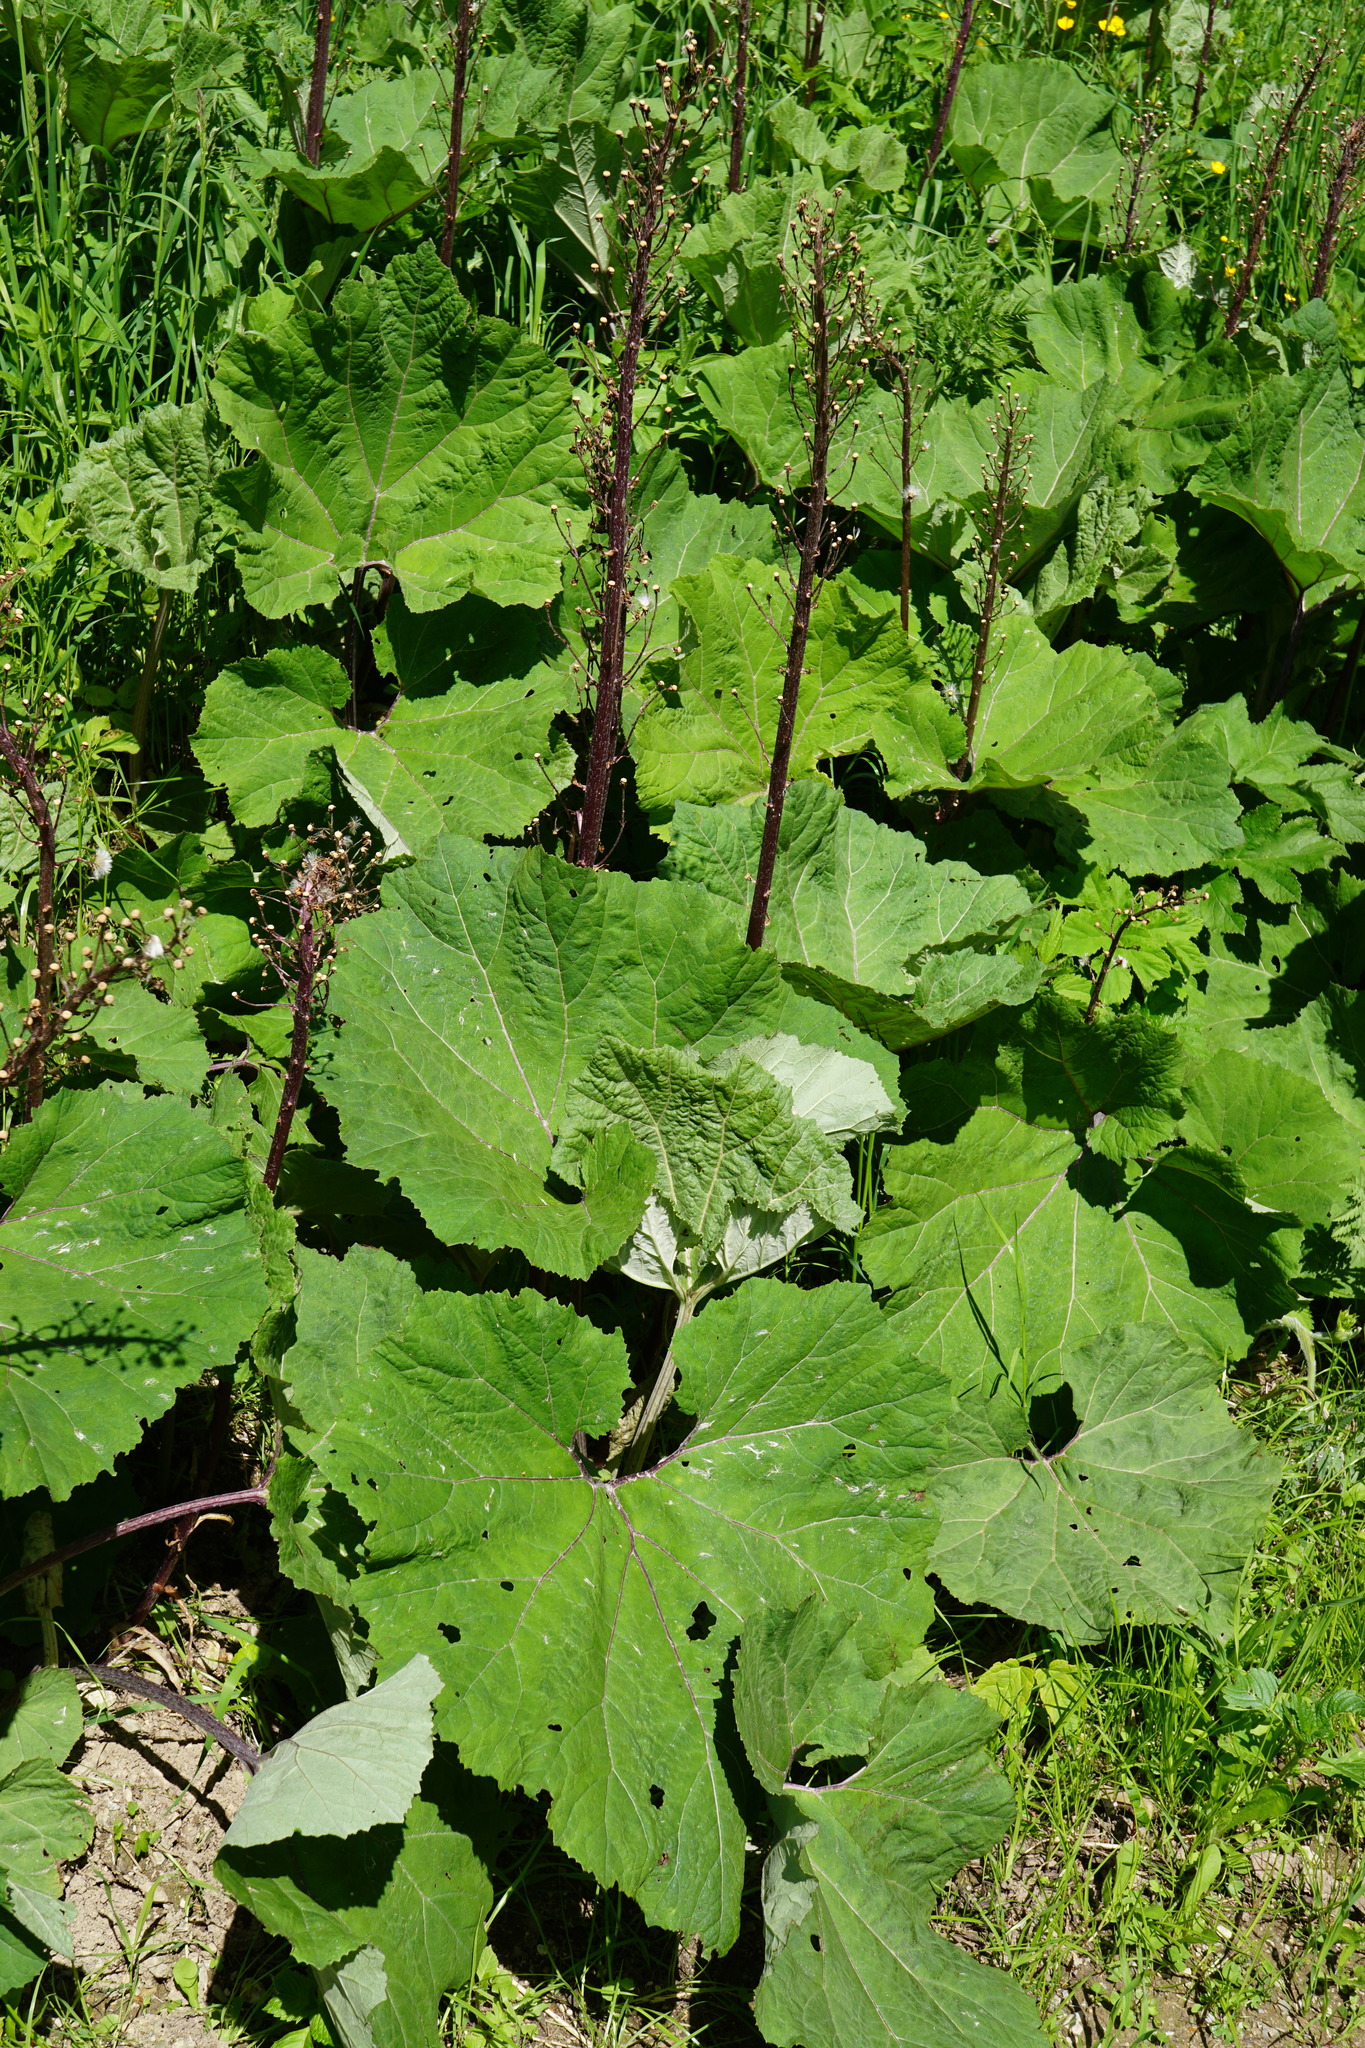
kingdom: Plantae
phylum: Tracheophyta
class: Magnoliopsida
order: Asterales
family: Asteraceae
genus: Petasites
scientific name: Petasites hybridus
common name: Butterbur
